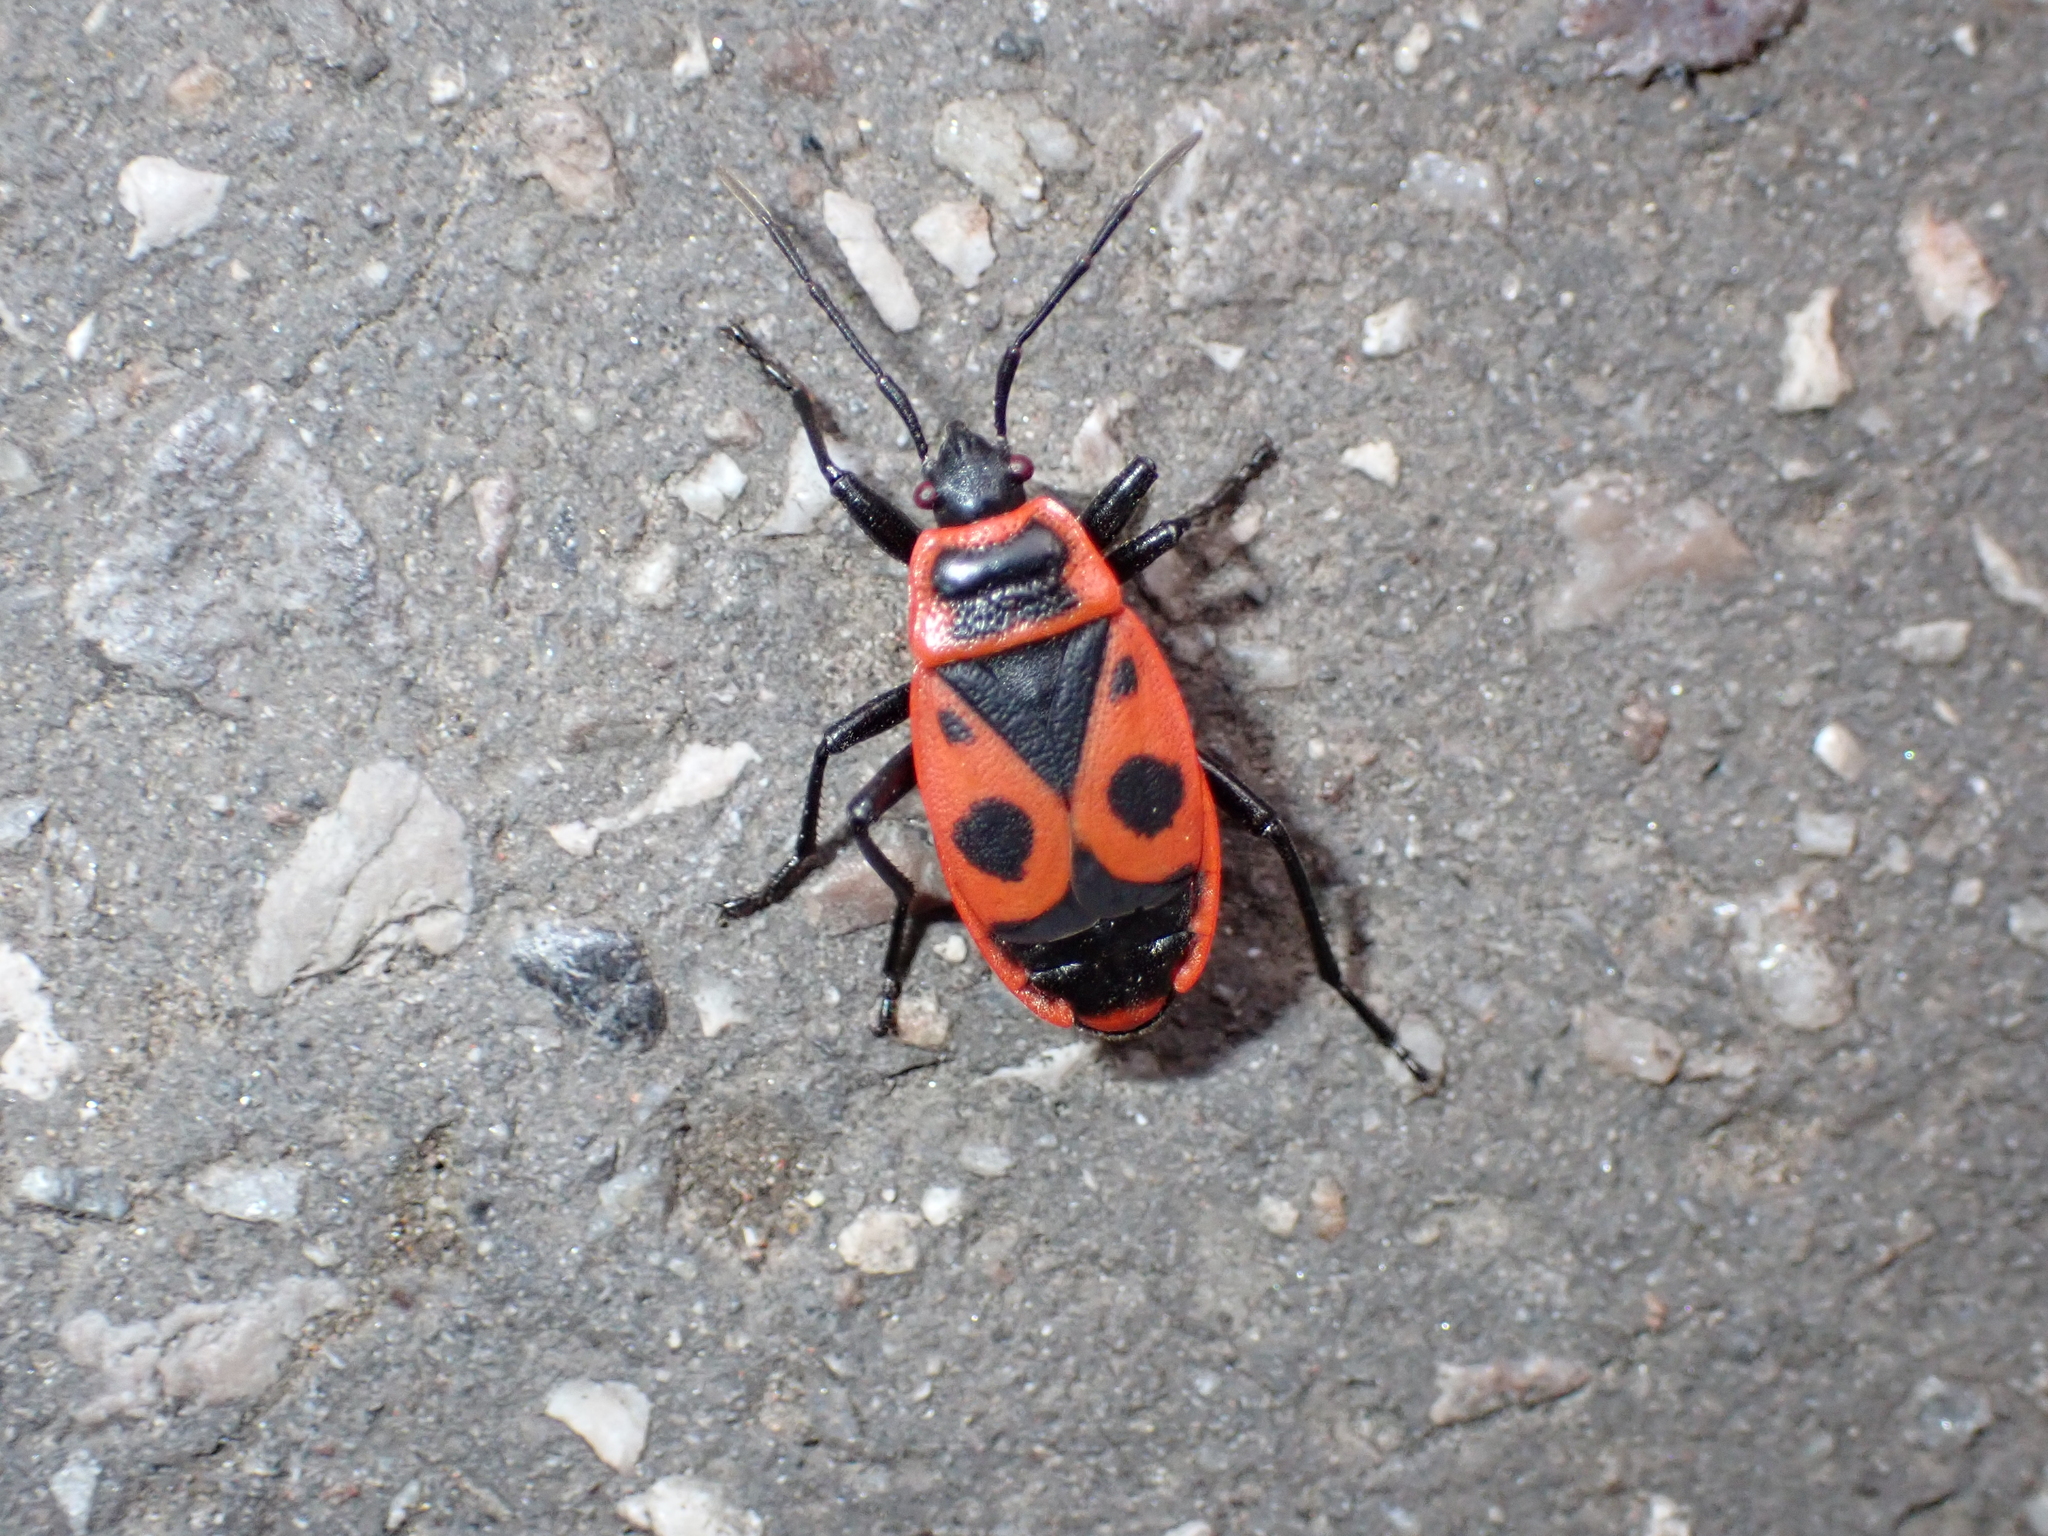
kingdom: Animalia
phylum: Arthropoda
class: Insecta
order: Hemiptera
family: Pyrrhocoridae
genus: Pyrrhocoris
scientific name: Pyrrhocoris apterus
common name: Firebug
